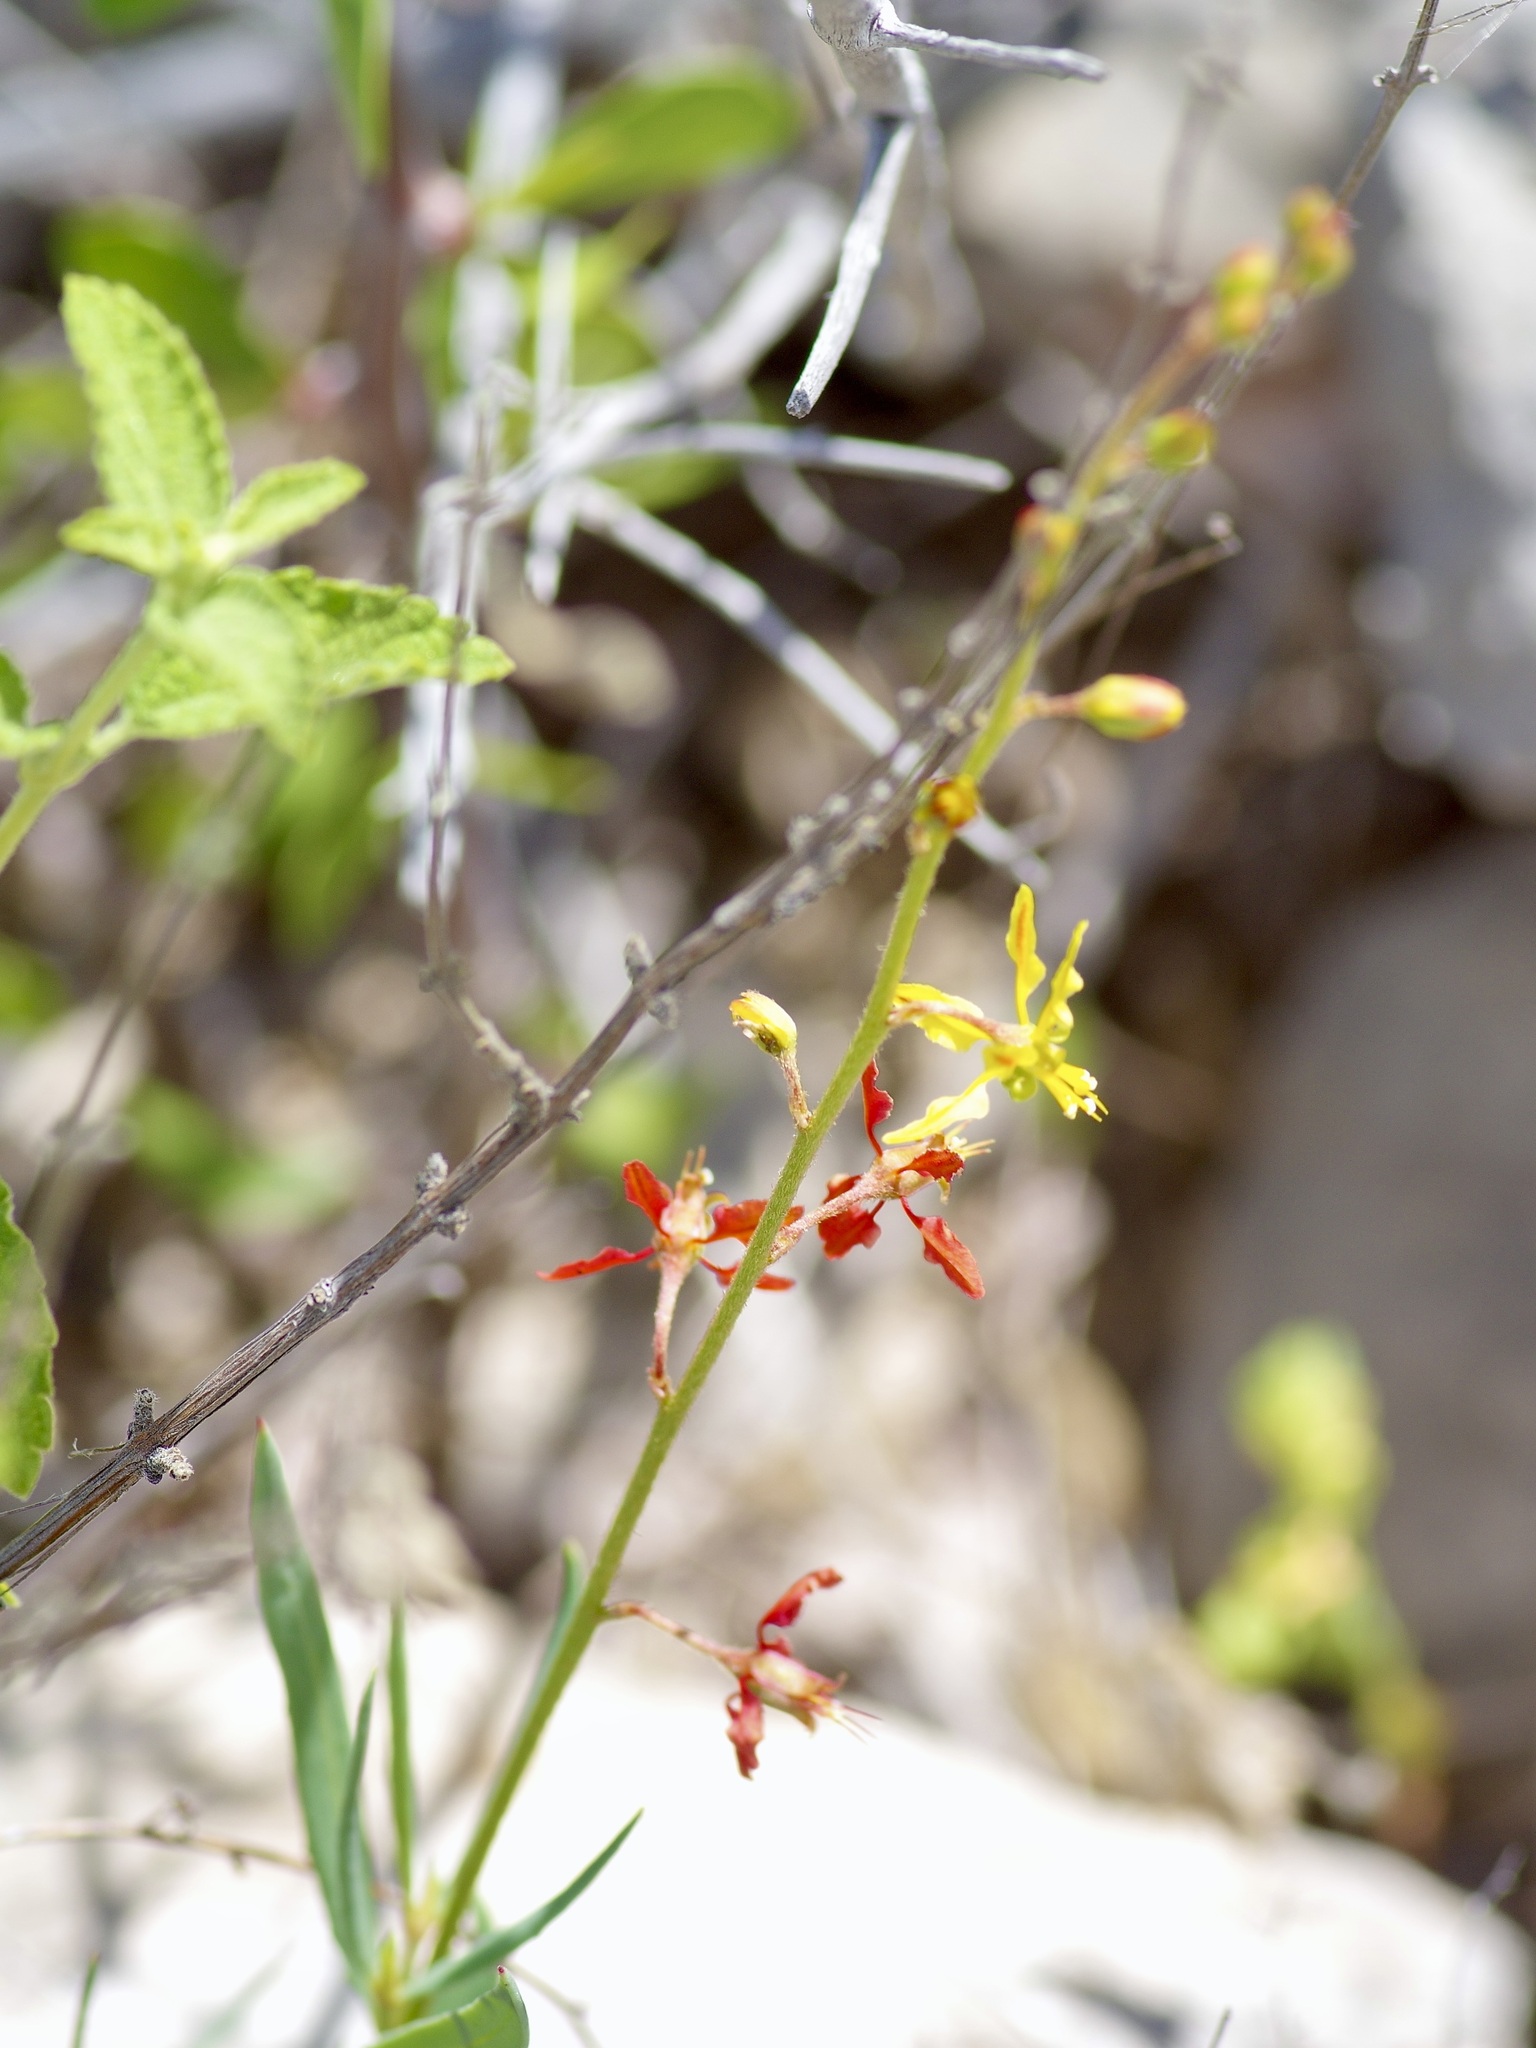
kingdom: Plantae
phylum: Tracheophyta
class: Magnoliopsida
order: Malpighiales
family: Malpighiaceae
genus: Galphimia
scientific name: Galphimia angustifolia
